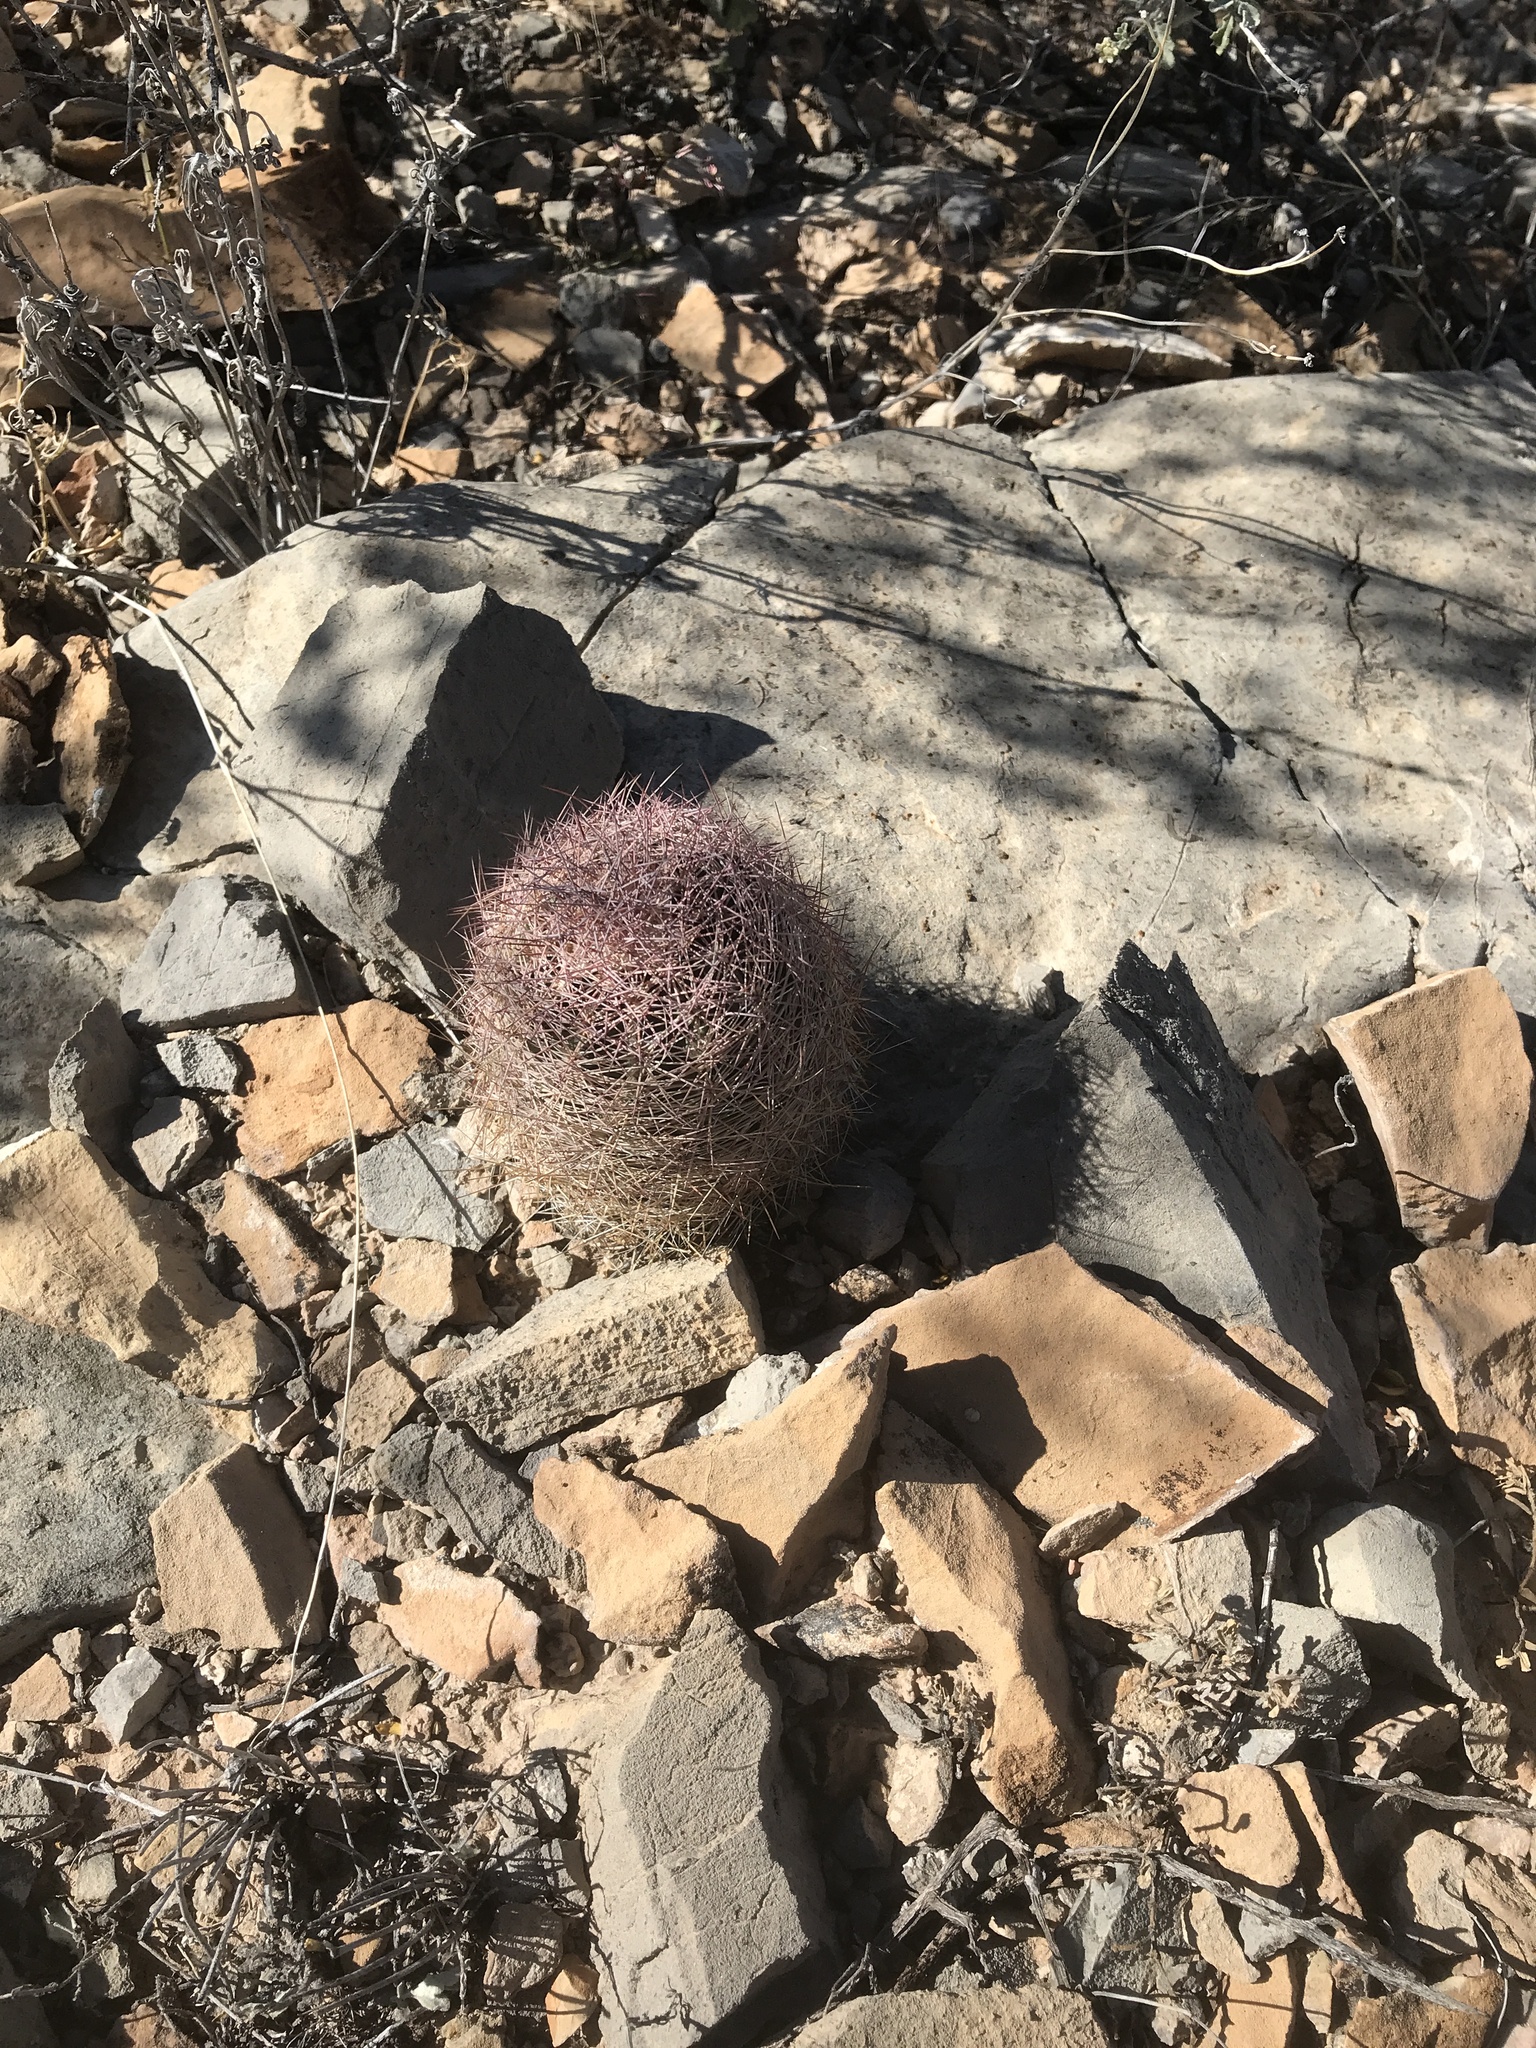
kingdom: Plantae
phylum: Tracheophyta
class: Magnoliopsida
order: Caryophyllales
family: Cactaceae
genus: Sclerocactus
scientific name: Sclerocactus intertextus
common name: White fish-hook cactus
